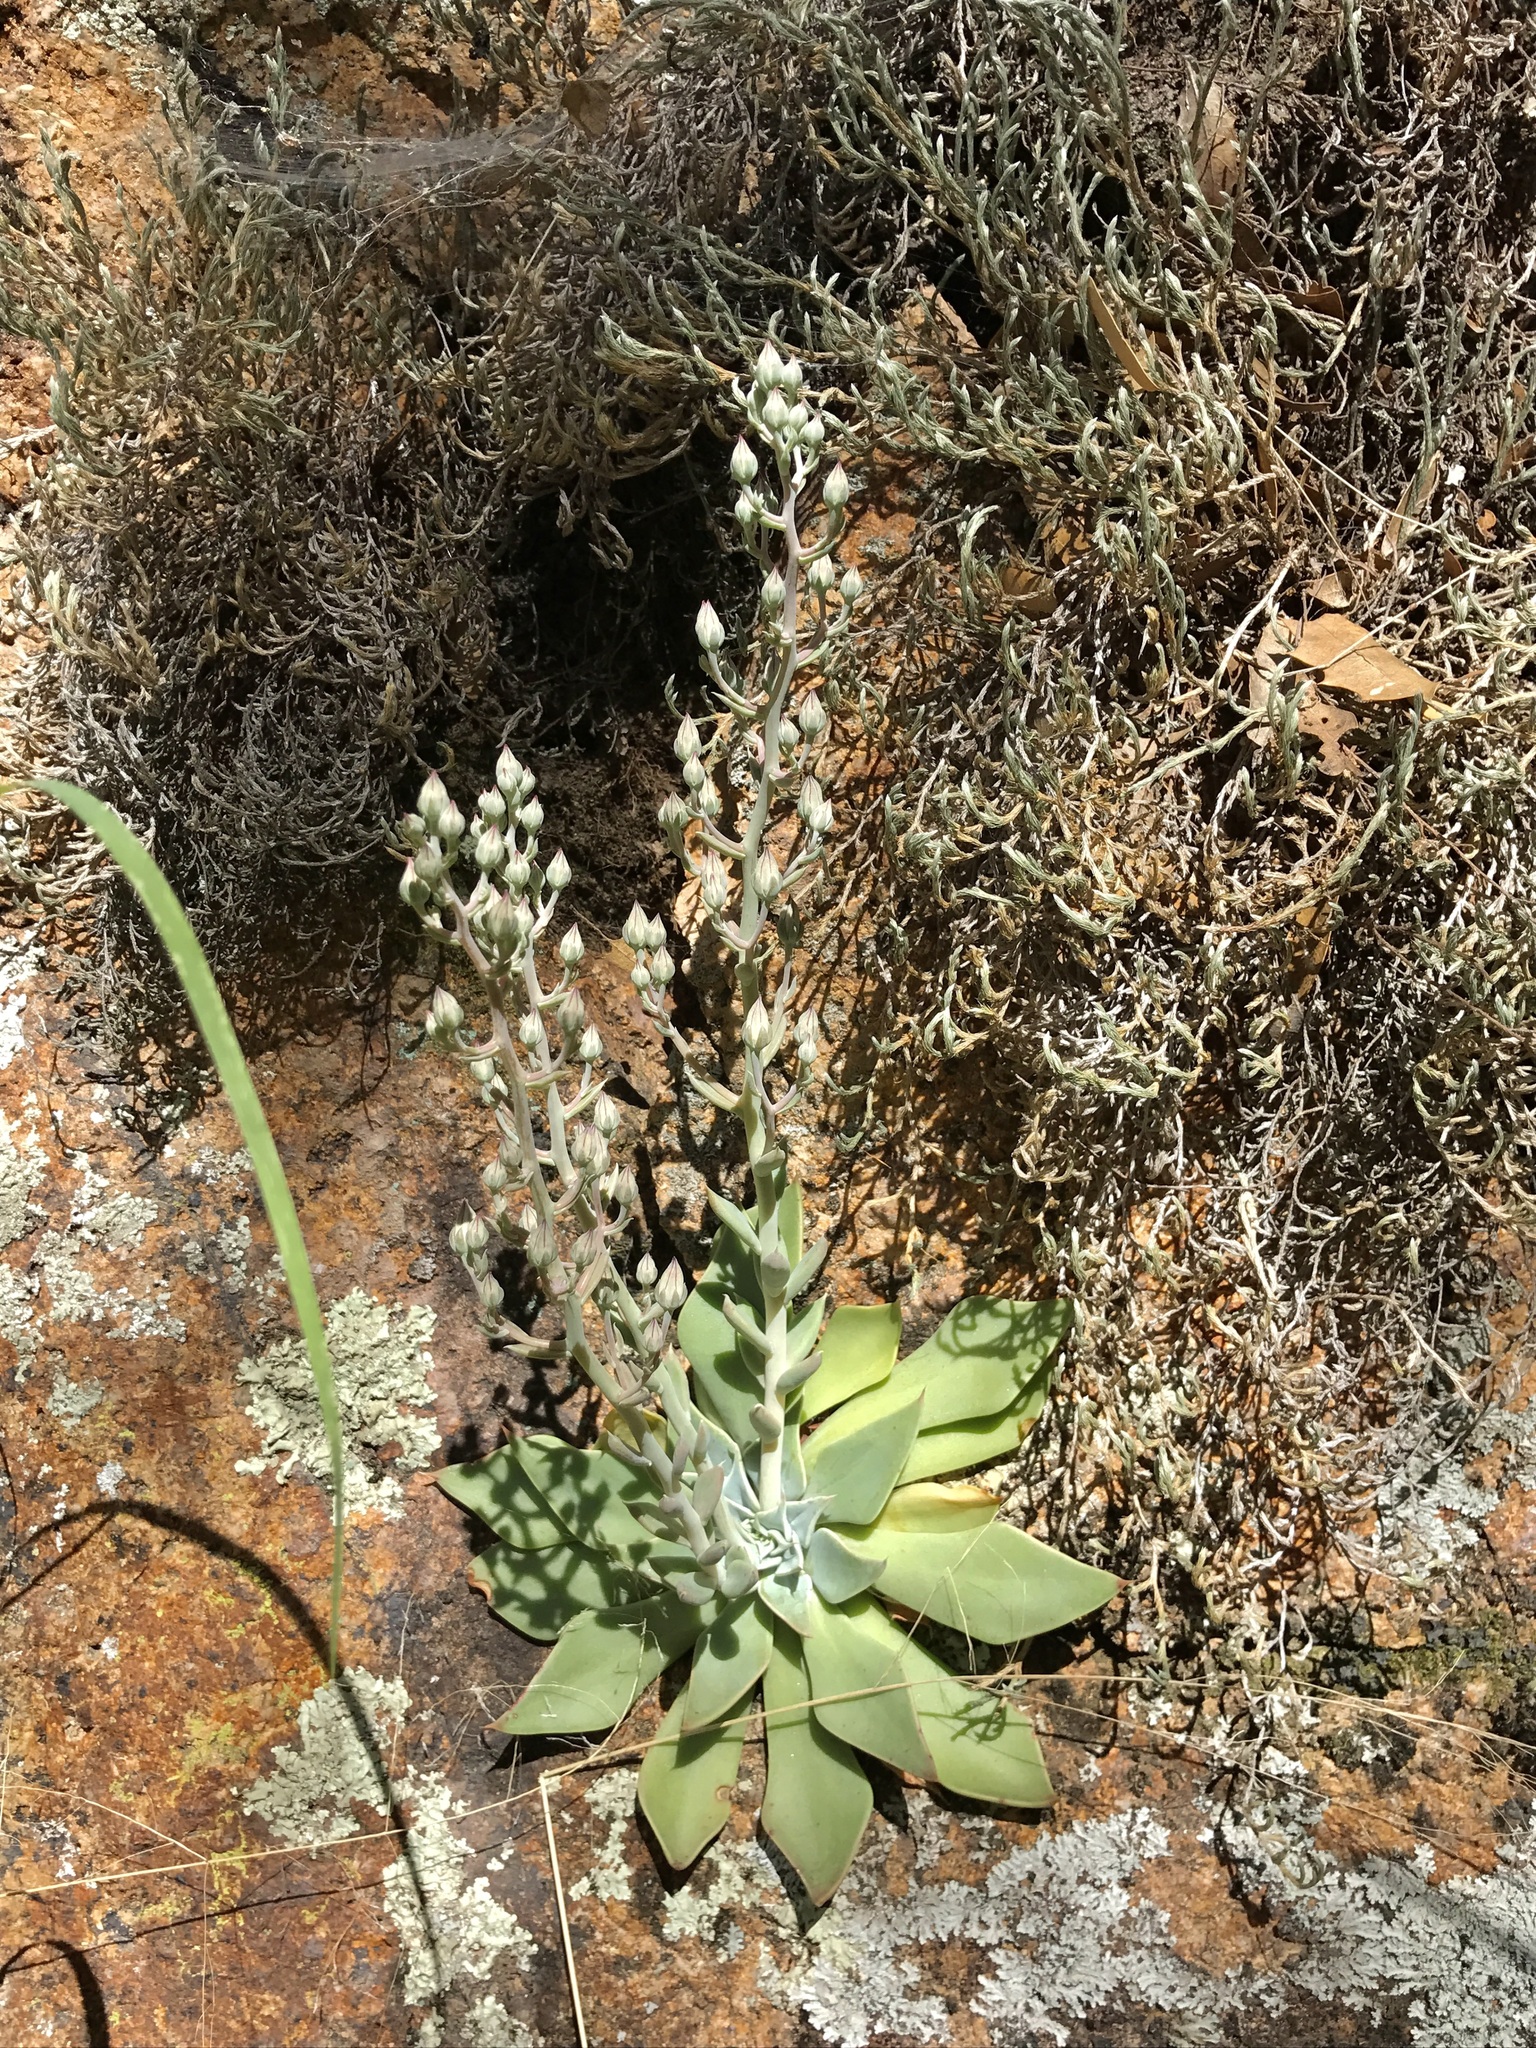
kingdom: Plantae
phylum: Tracheophyta
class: Magnoliopsida
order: Saxifragales
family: Crassulaceae
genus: Graptopetalum
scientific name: Graptopetalum bartramii
